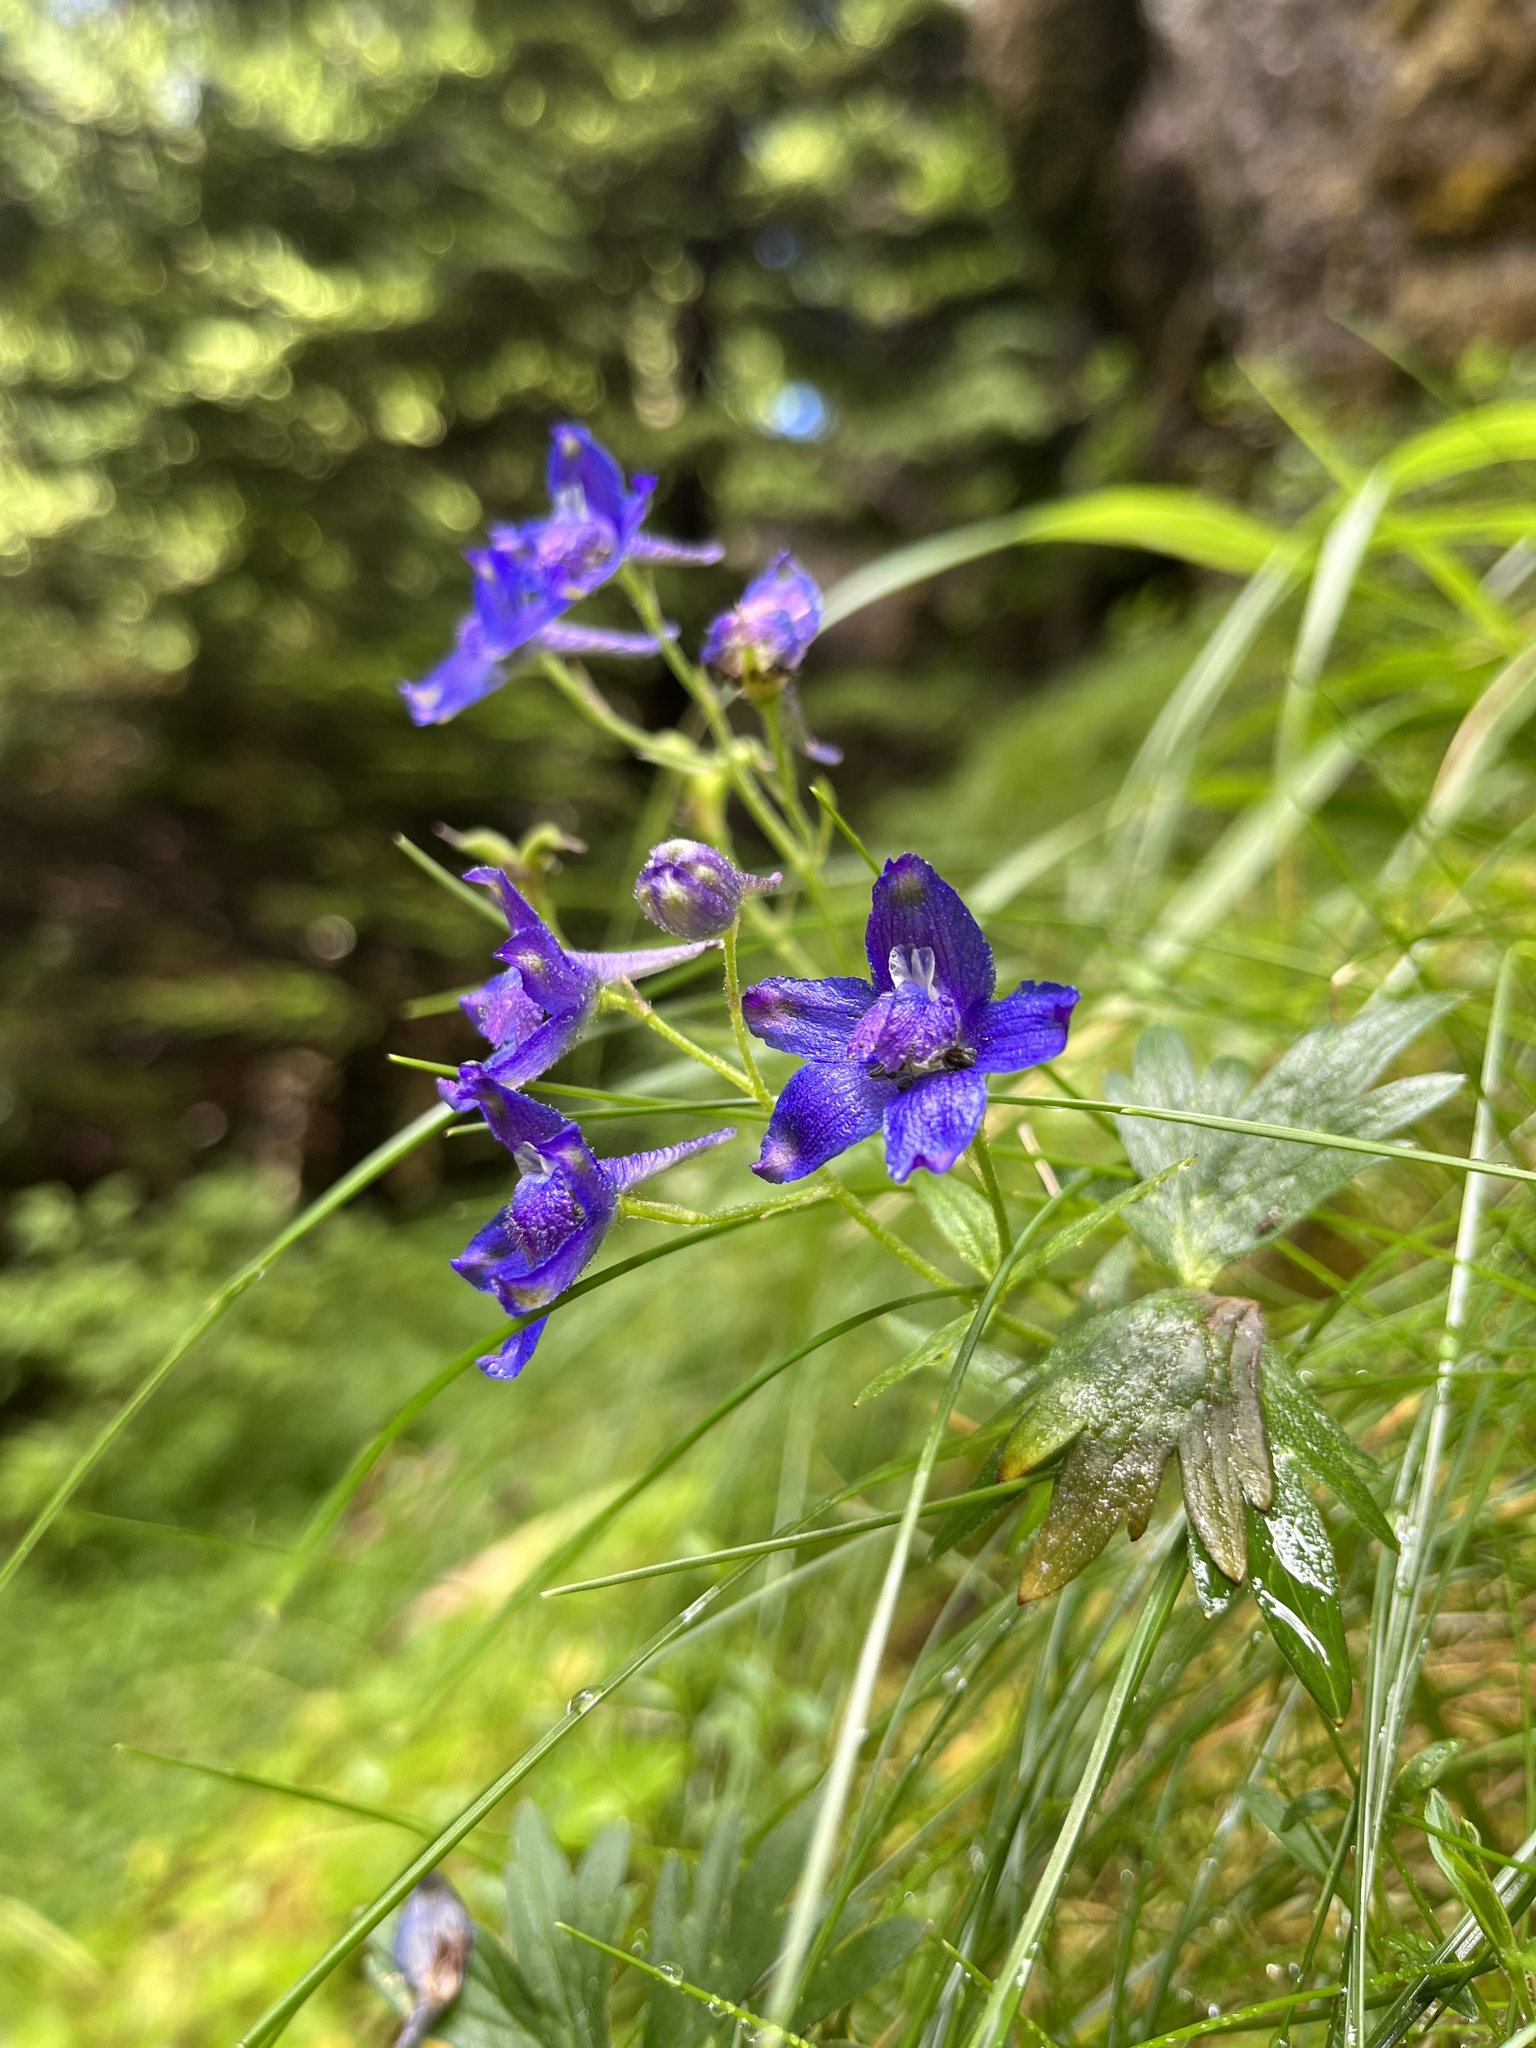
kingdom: Plantae
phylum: Tracheophyta
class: Magnoliopsida
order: Ranunculales
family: Ranunculaceae
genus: Delphinium
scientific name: Delphinium menziesii
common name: Menzies's larkspur
